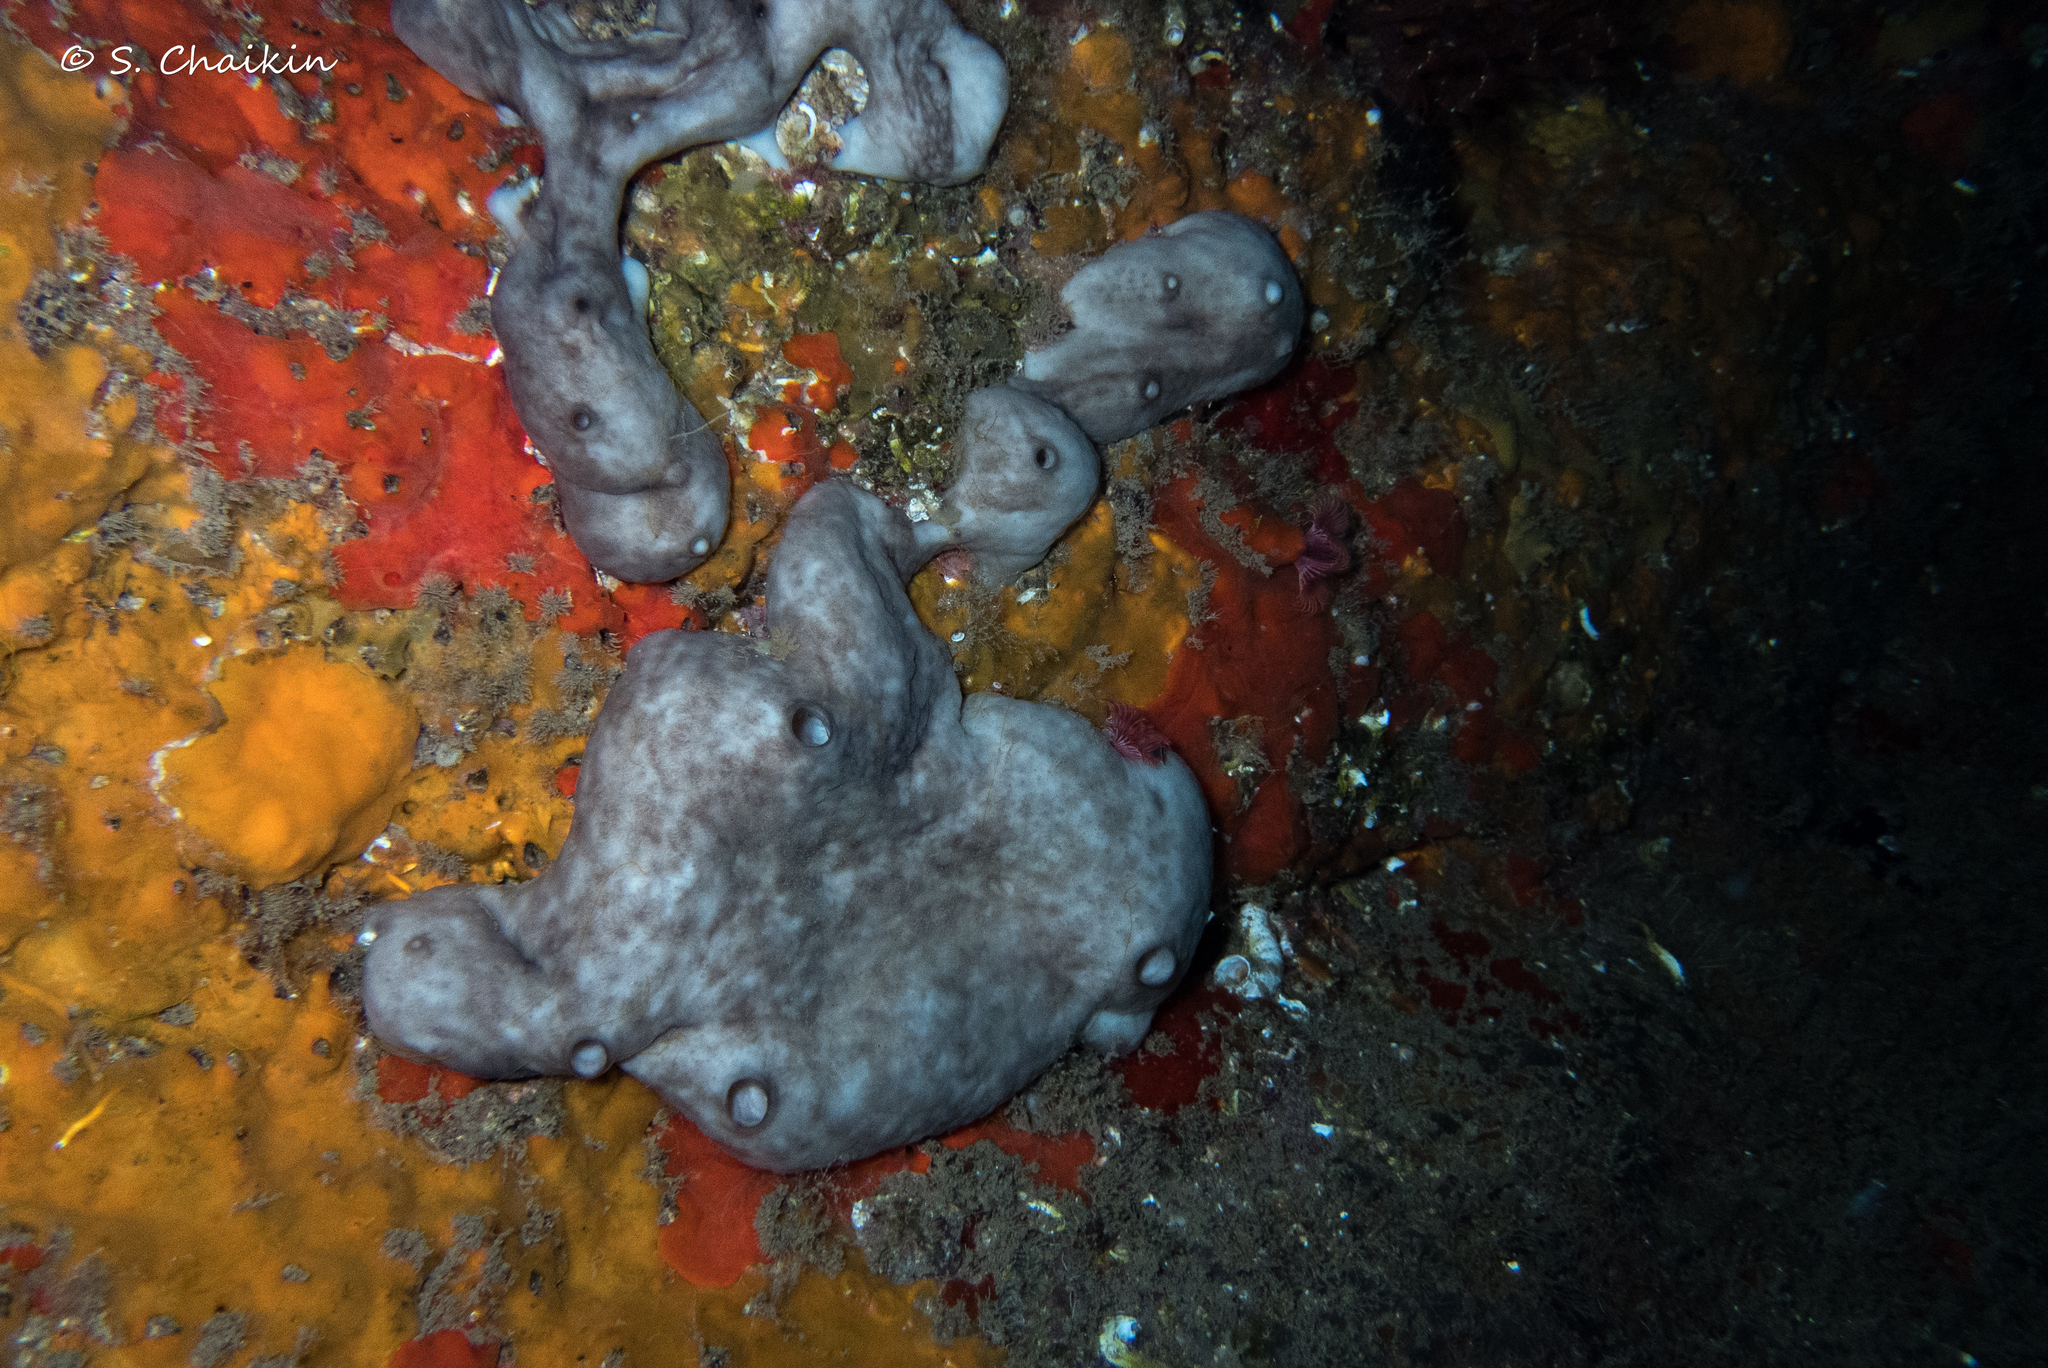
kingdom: Animalia
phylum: Porifera
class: Demospongiae
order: Chondrosiida
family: Chondrosiidae
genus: Chondrosia
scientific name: Chondrosia reniformis
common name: Chicken liver sponge
